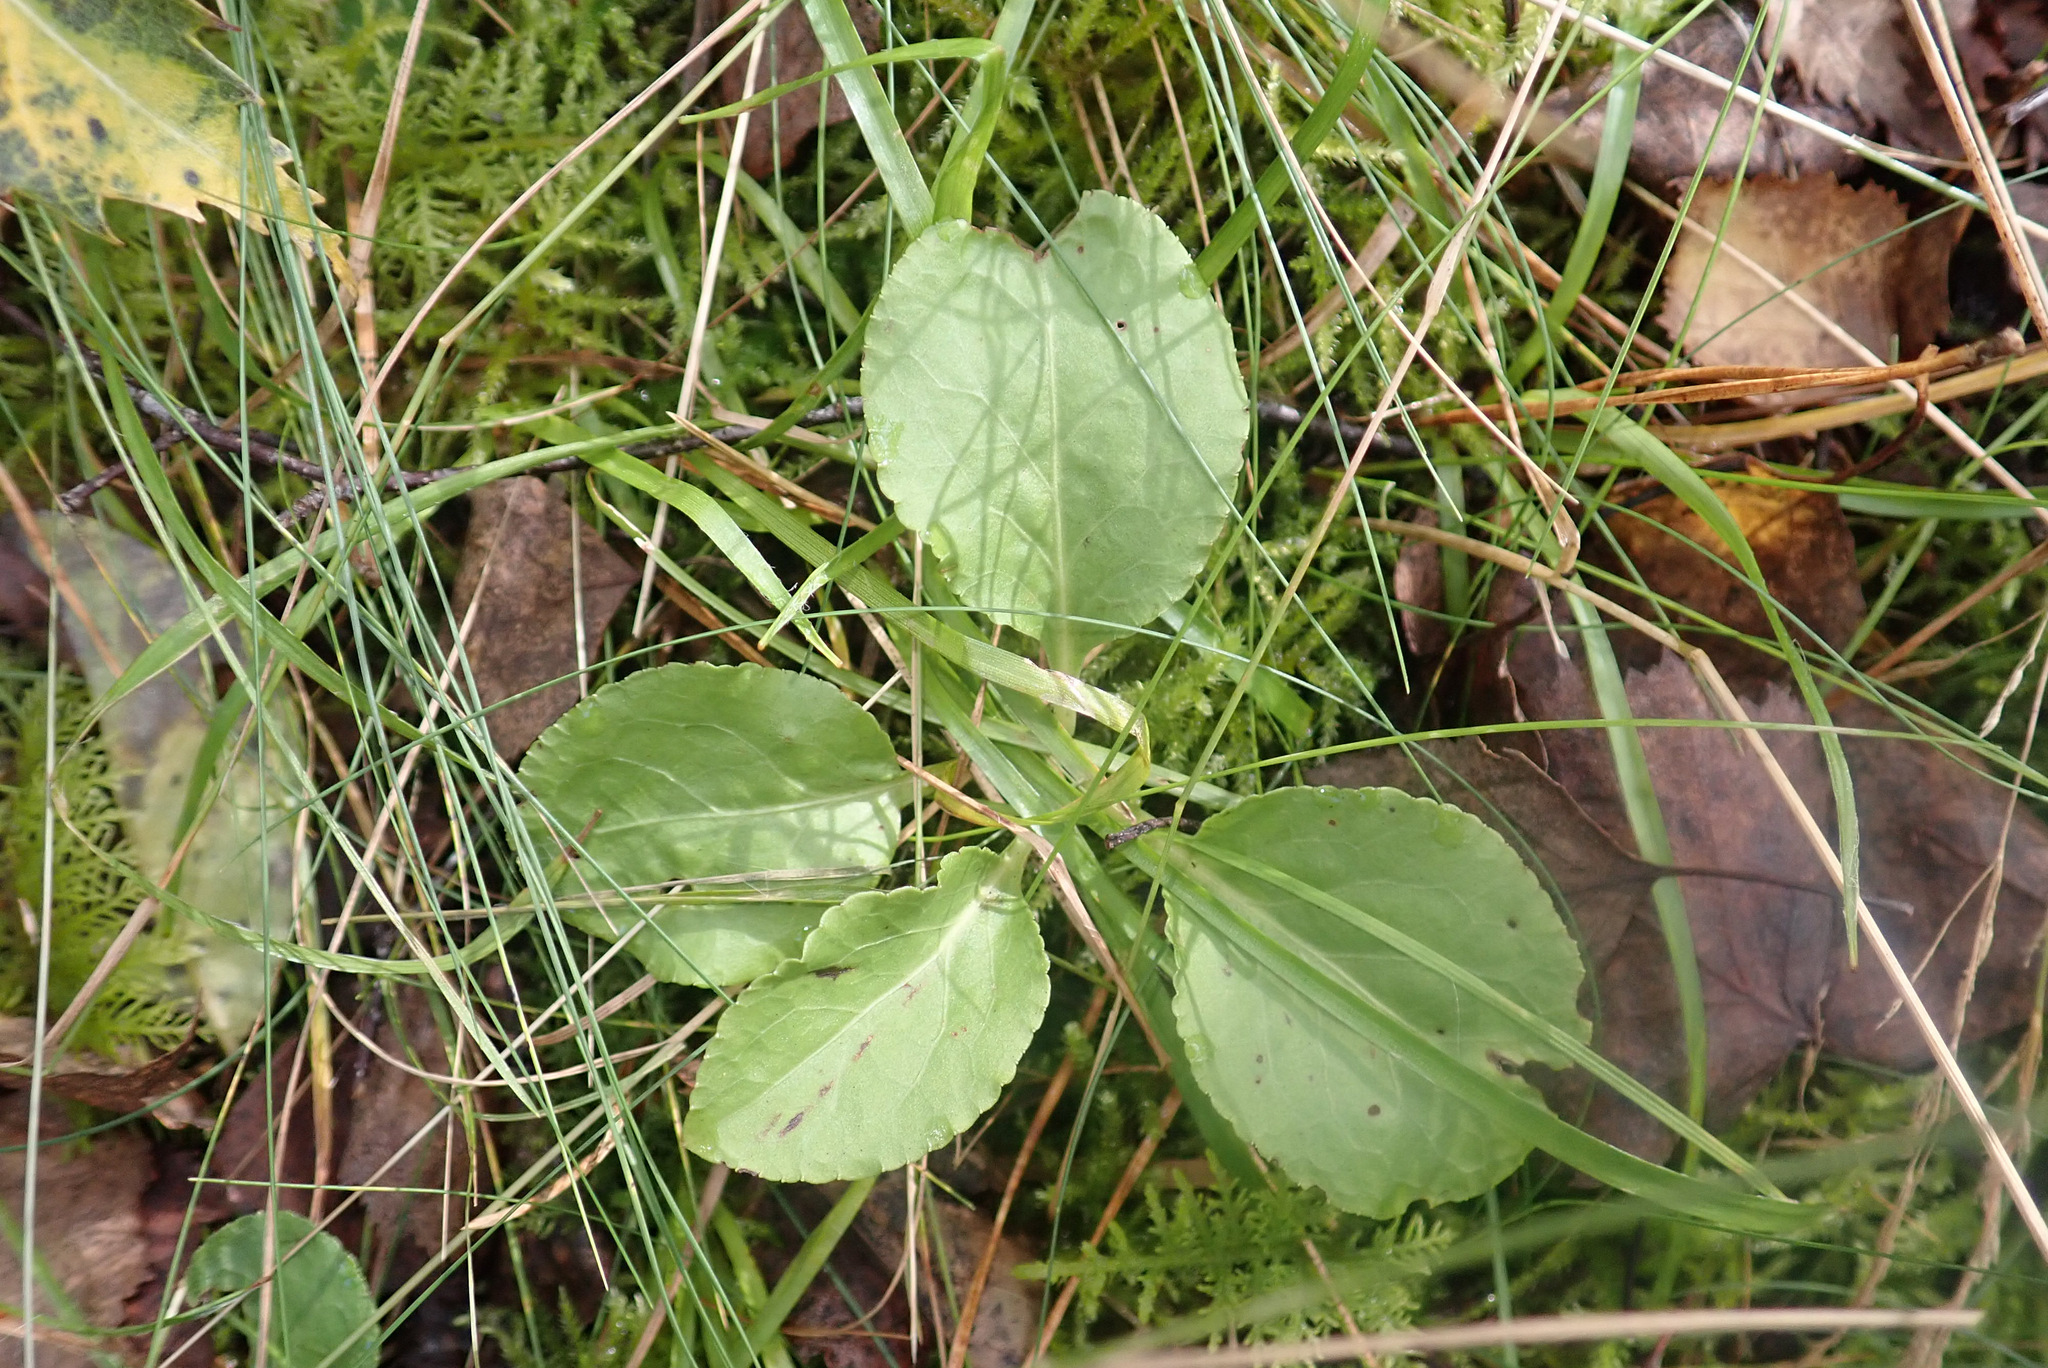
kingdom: Plantae
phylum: Tracheophyta
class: Magnoliopsida
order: Ericales
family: Ericaceae
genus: Pyrola
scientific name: Pyrola minor
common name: Common wintergreen
